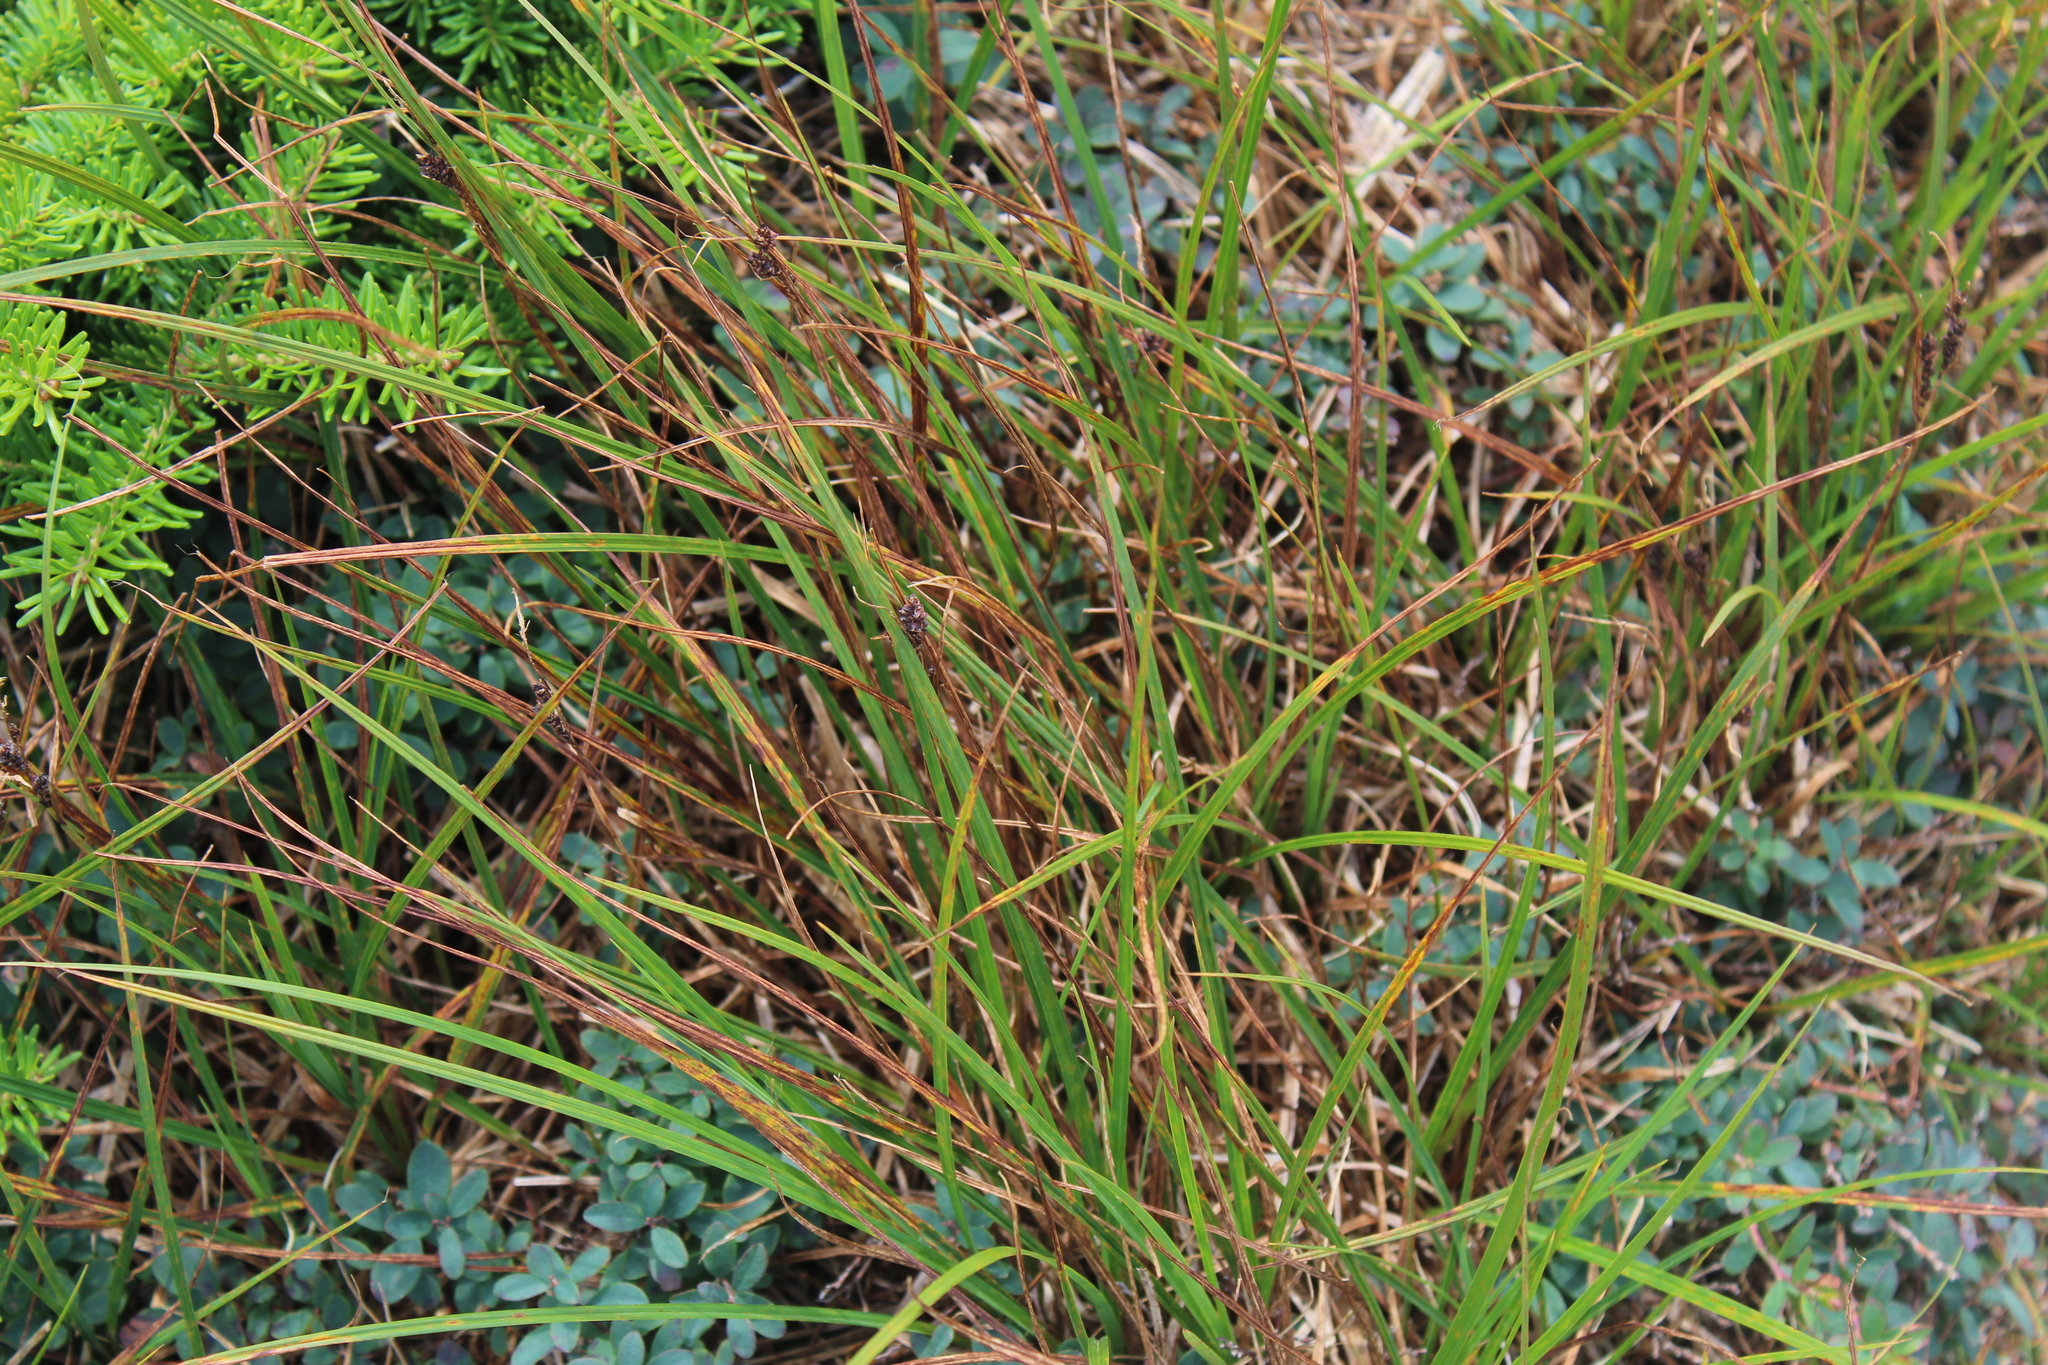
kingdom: Plantae
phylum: Tracheophyta
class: Magnoliopsida
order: Ericales
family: Ericaceae
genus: Vaccinium
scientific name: Vaccinium uliginosum
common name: Bog bilberry
